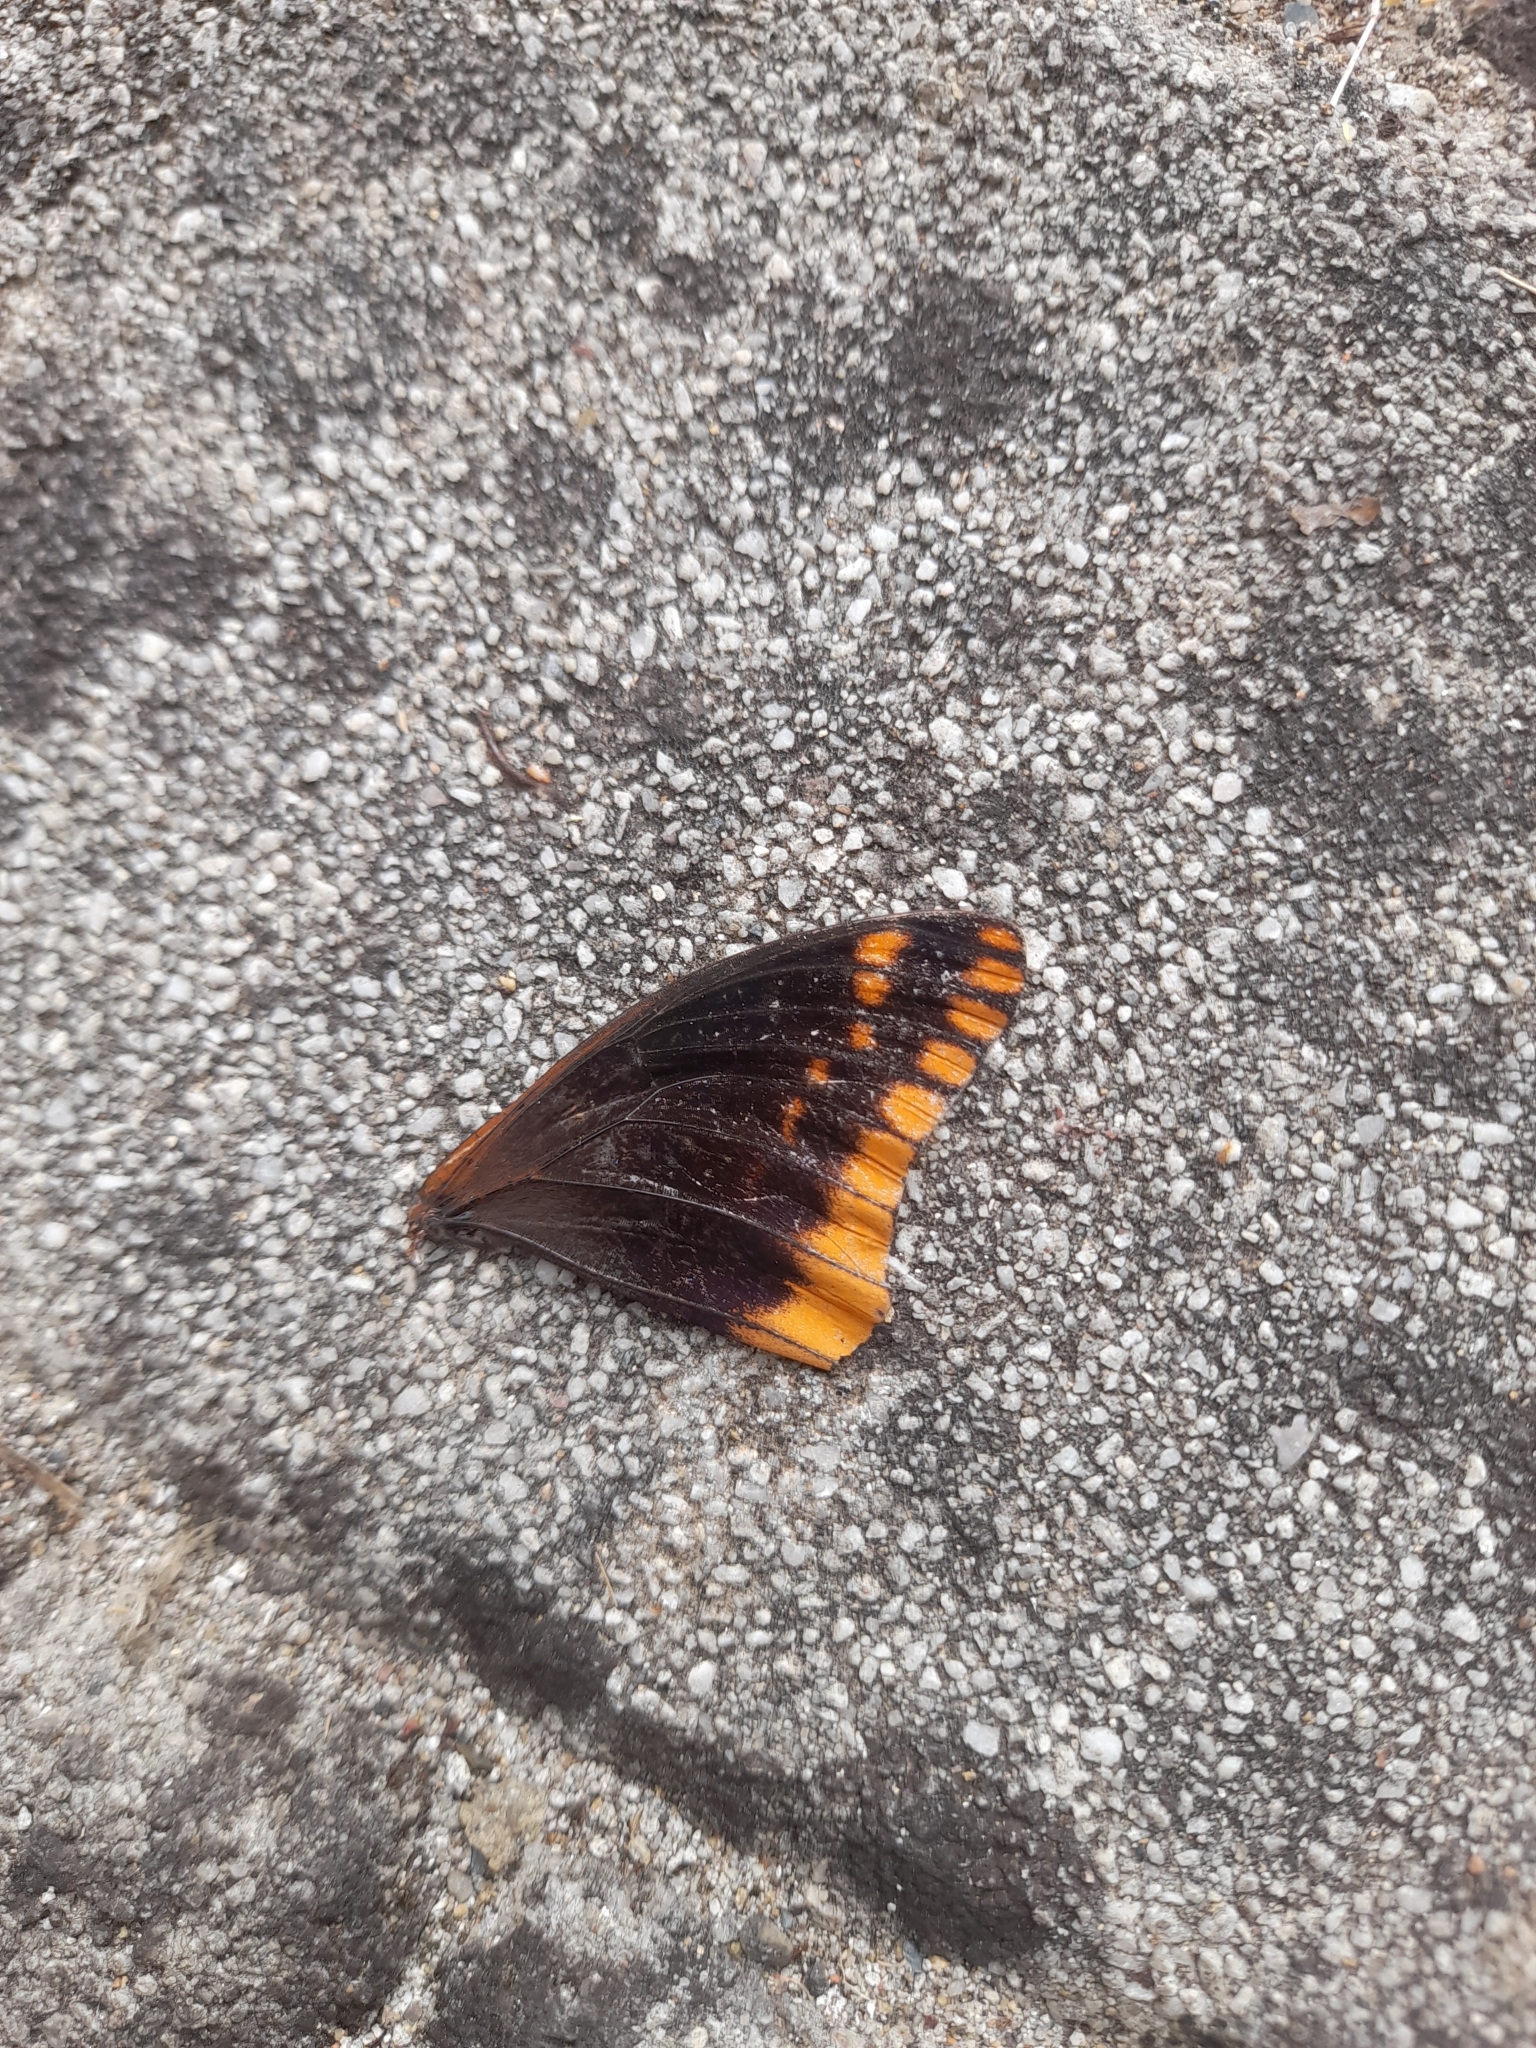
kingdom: Animalia
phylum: Arthropoda
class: Insecta
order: Lepidoptera
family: Nymphalidae
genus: Charaxes
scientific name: Charaxes jasius
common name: Two tailed pasha
